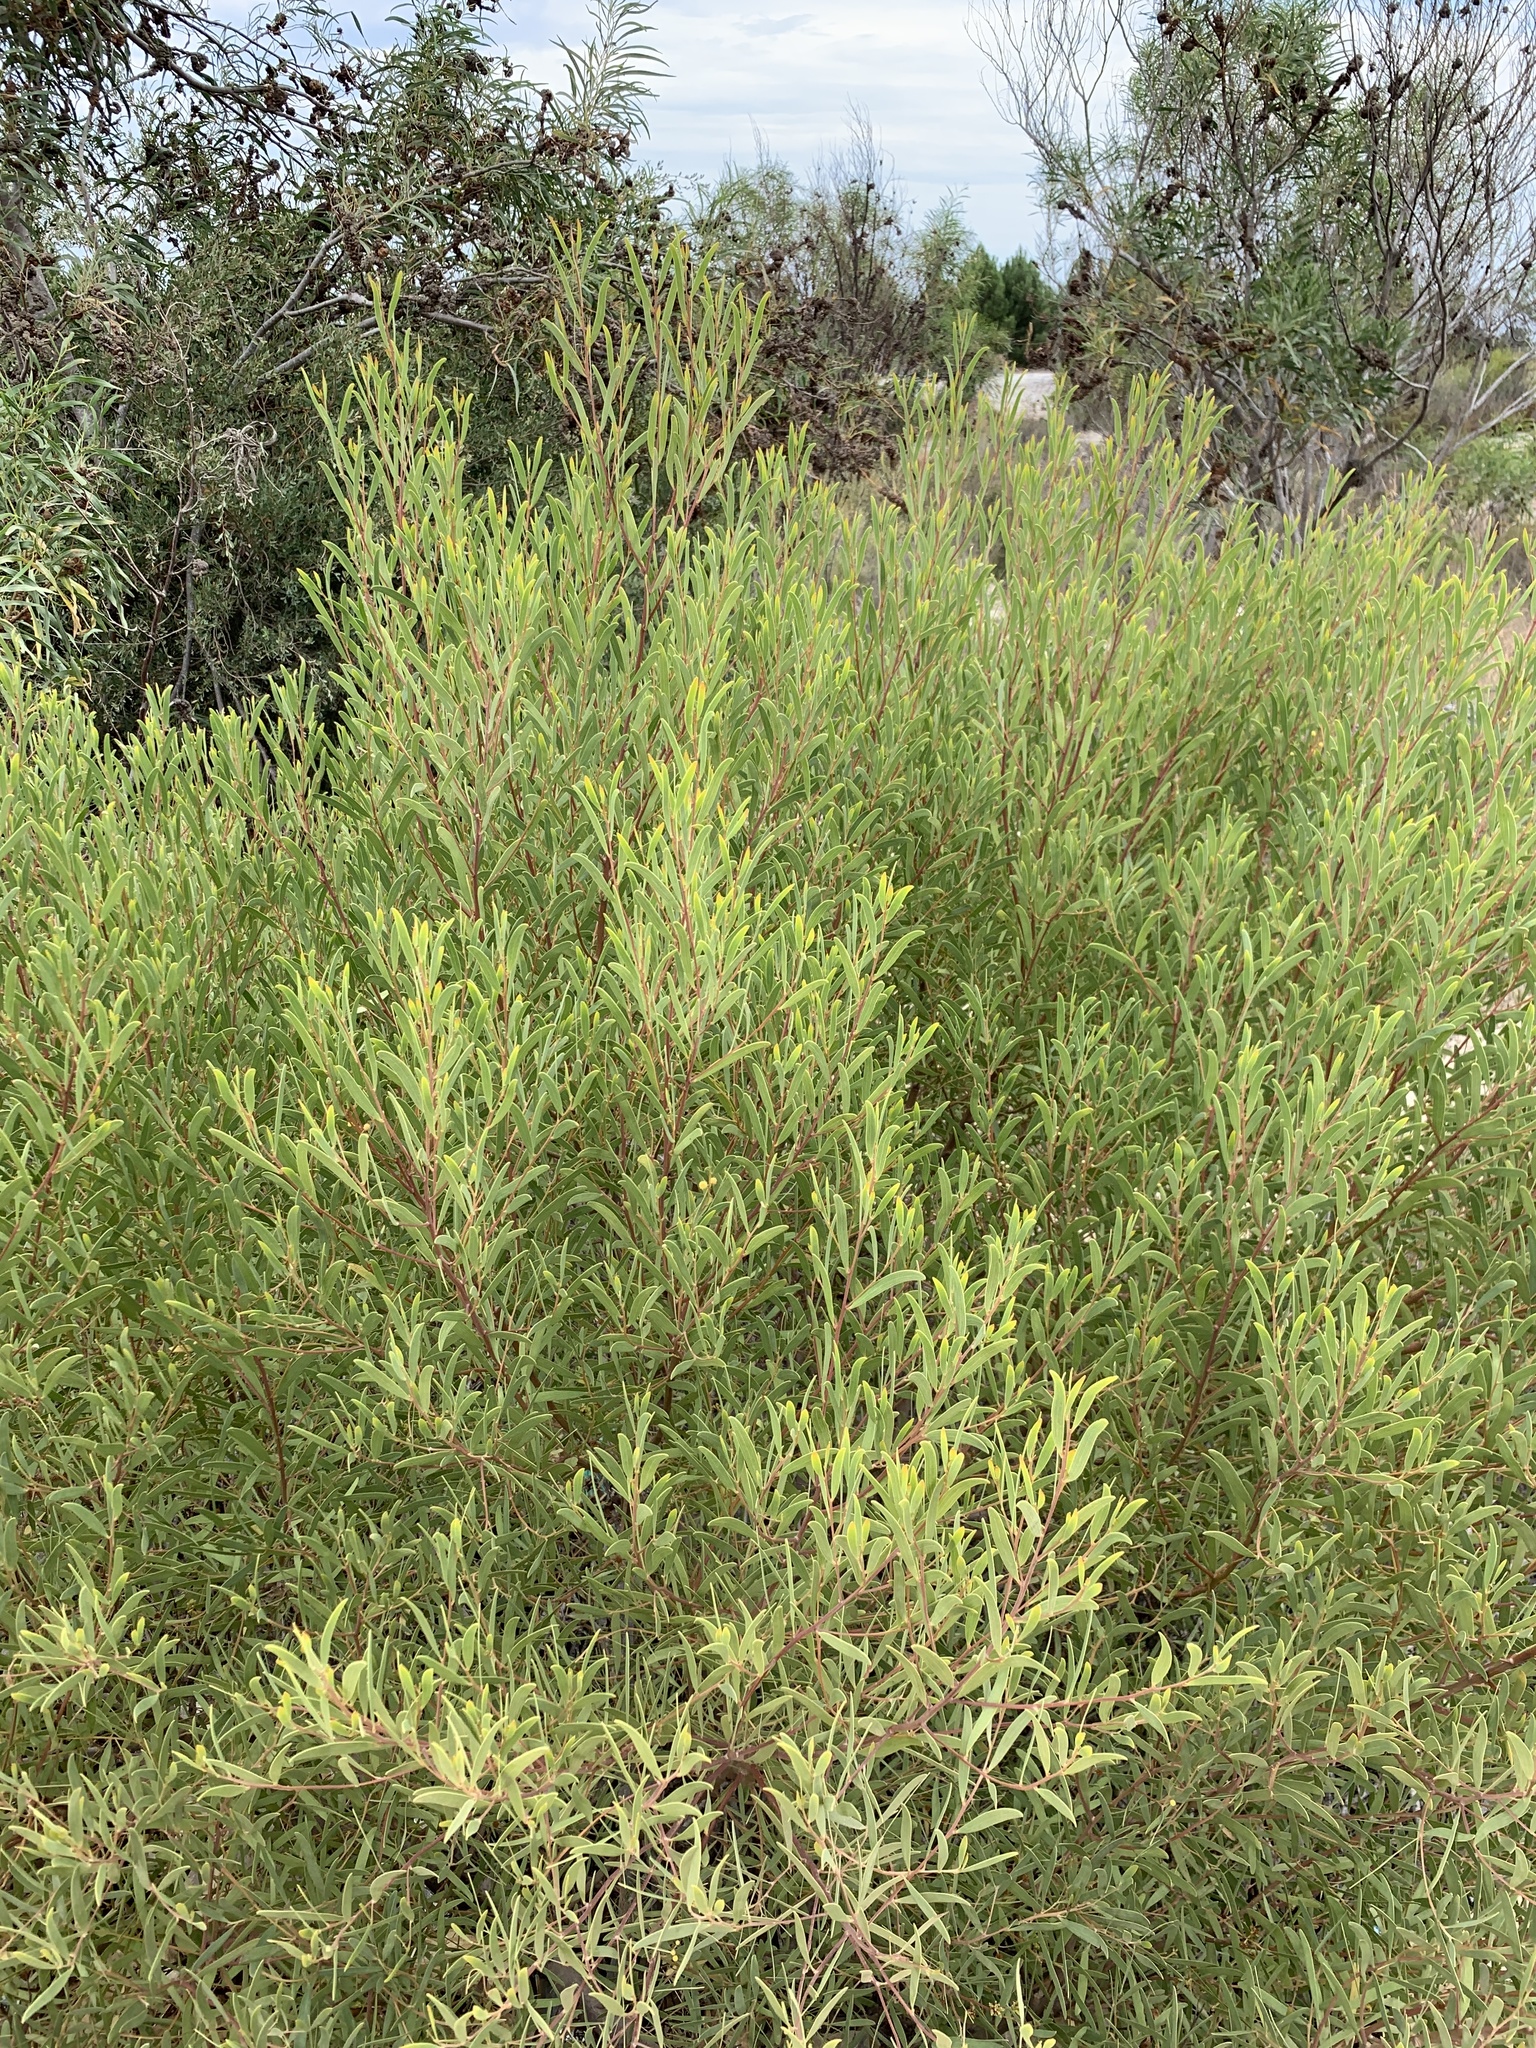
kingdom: Plantae
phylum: Tracheophyta
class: Magnoliopsida
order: Fabales
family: Fabaceae
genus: Acacia
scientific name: Acacia cyclops
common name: Coastal wattle
